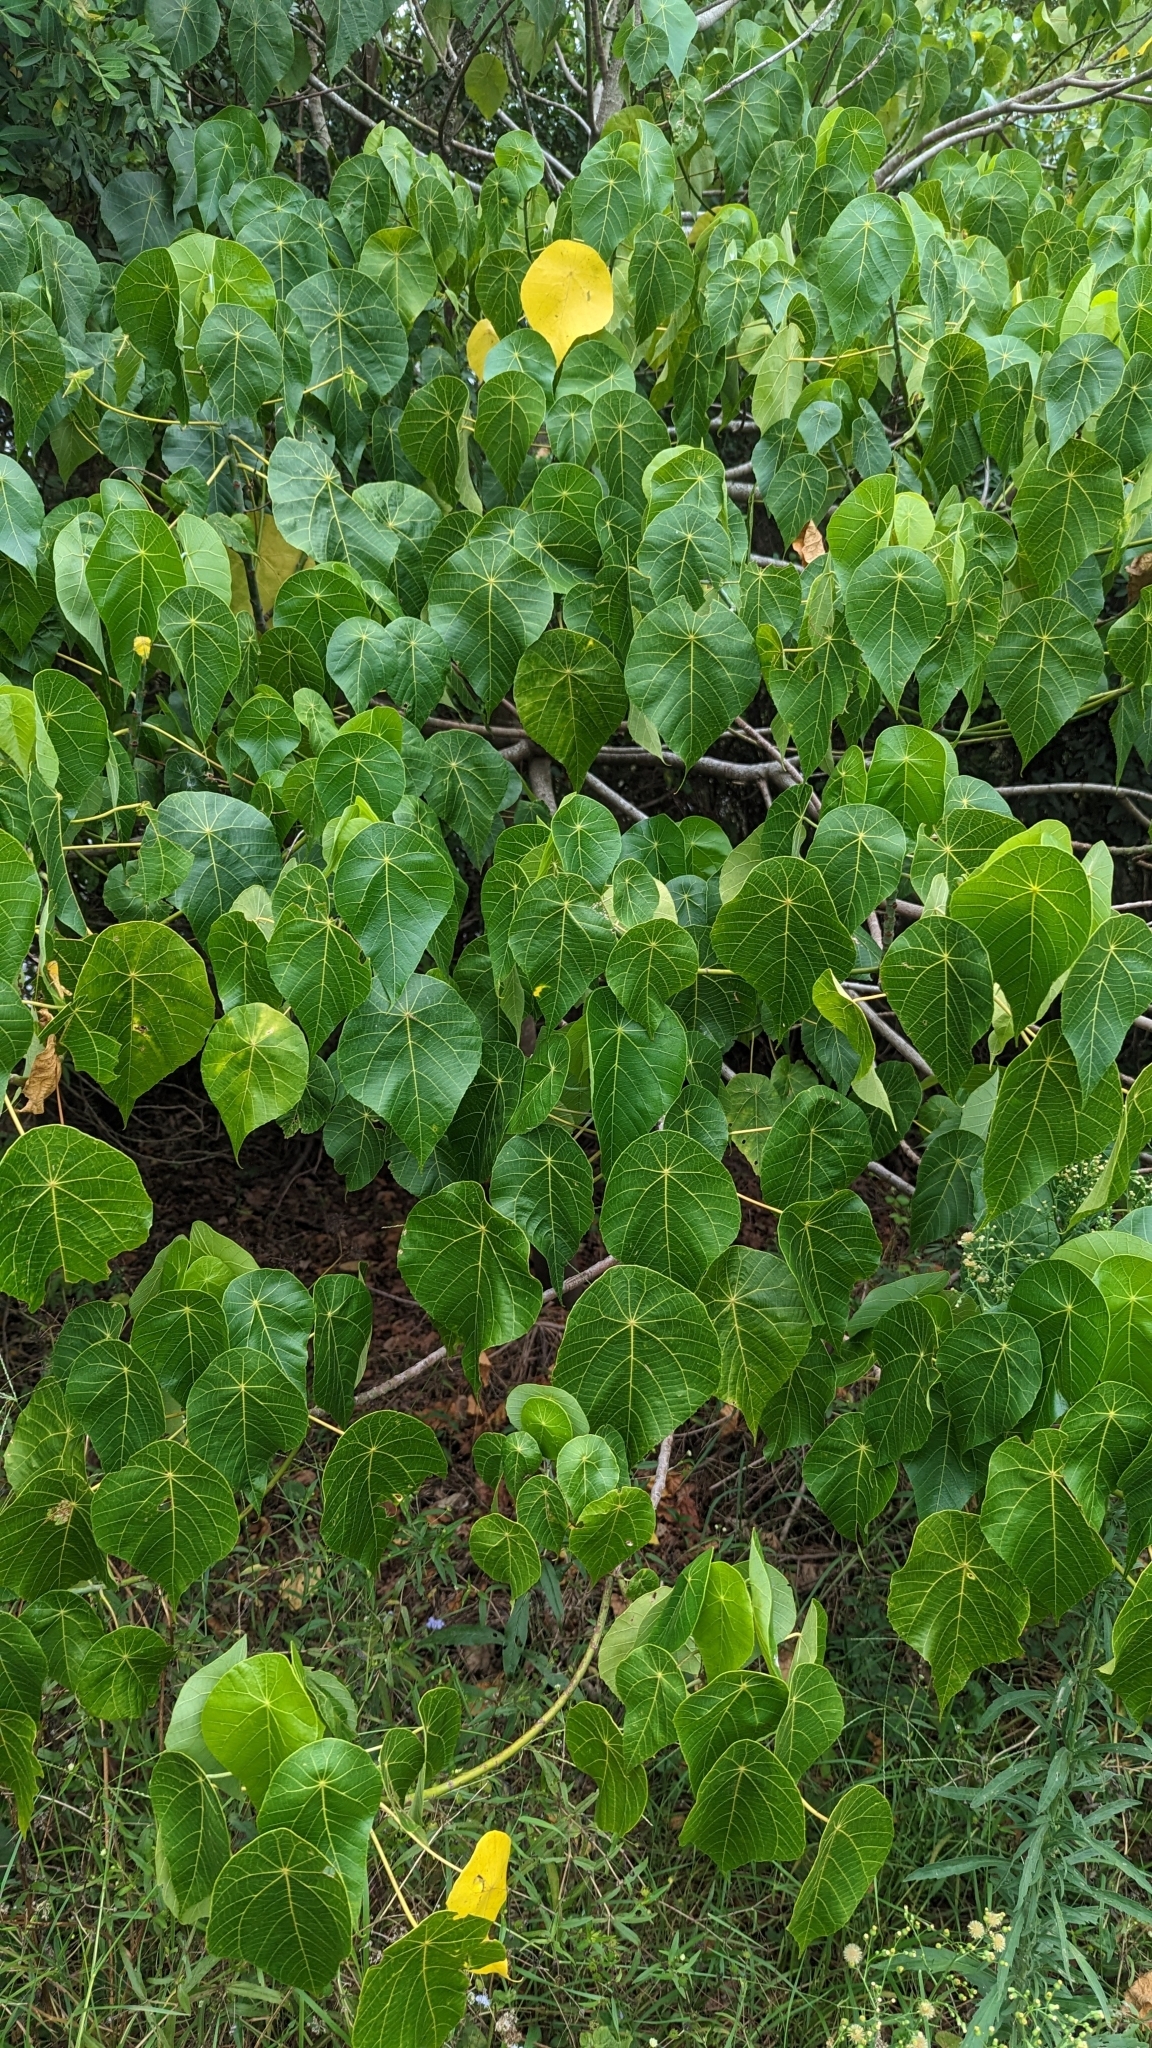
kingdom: Plantae
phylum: Tracheophyta
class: Magnoliopsida
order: Malpighiales
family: Euphorbiaceae
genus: Macaranga
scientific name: Macaranga tanarius
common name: Parasol leaf tree
